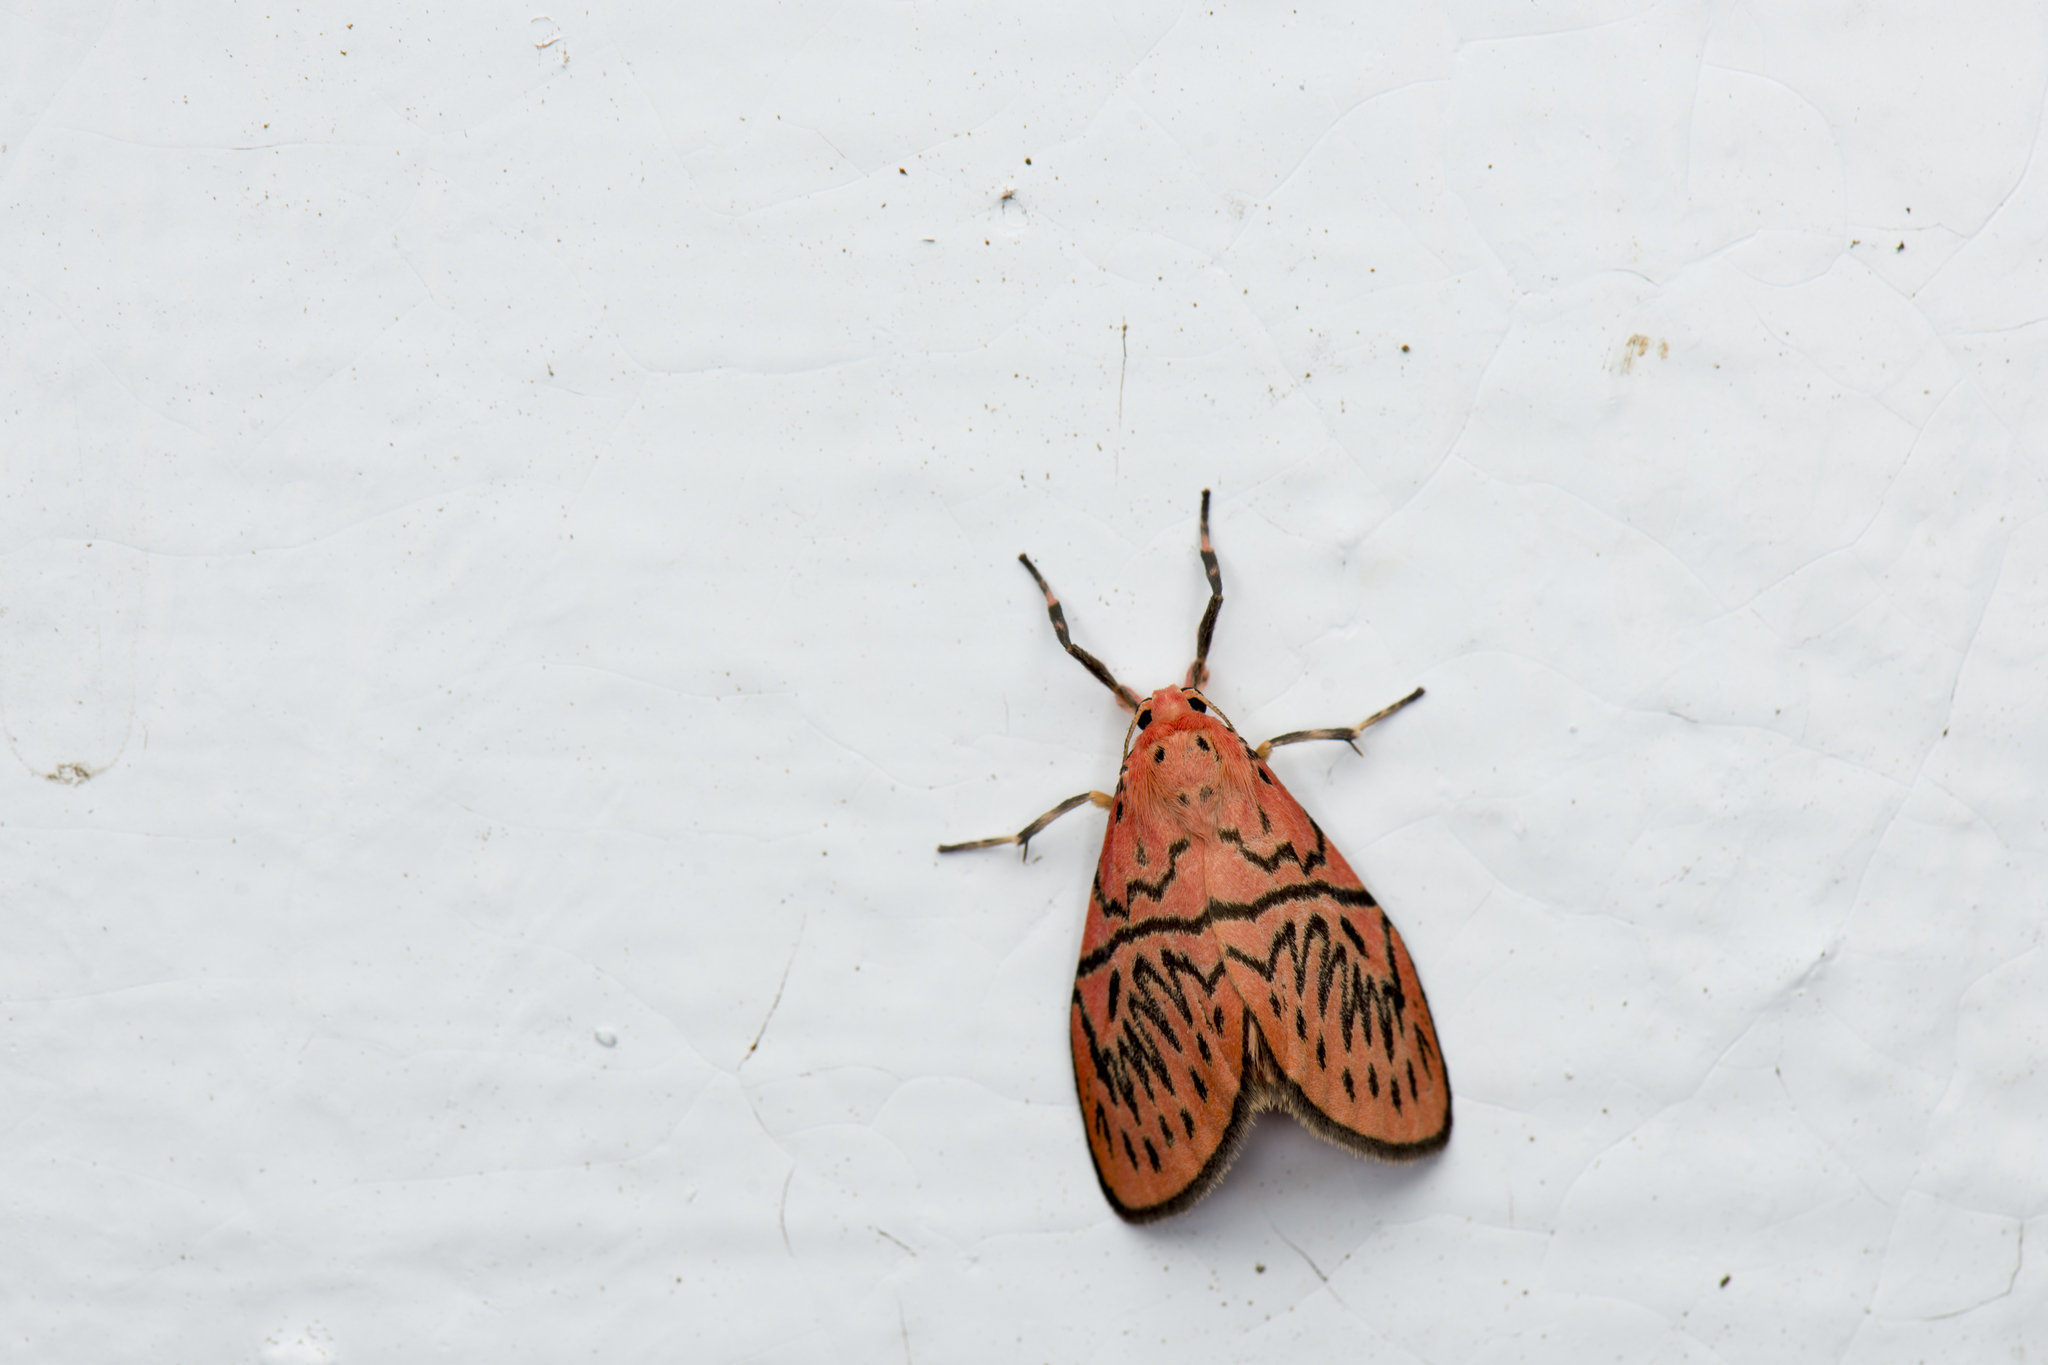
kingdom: Animalia
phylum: Arthropoda
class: Insecta
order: Lepidoptera
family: Erebidae
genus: Sesapa
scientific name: Sesapa honbaensis
